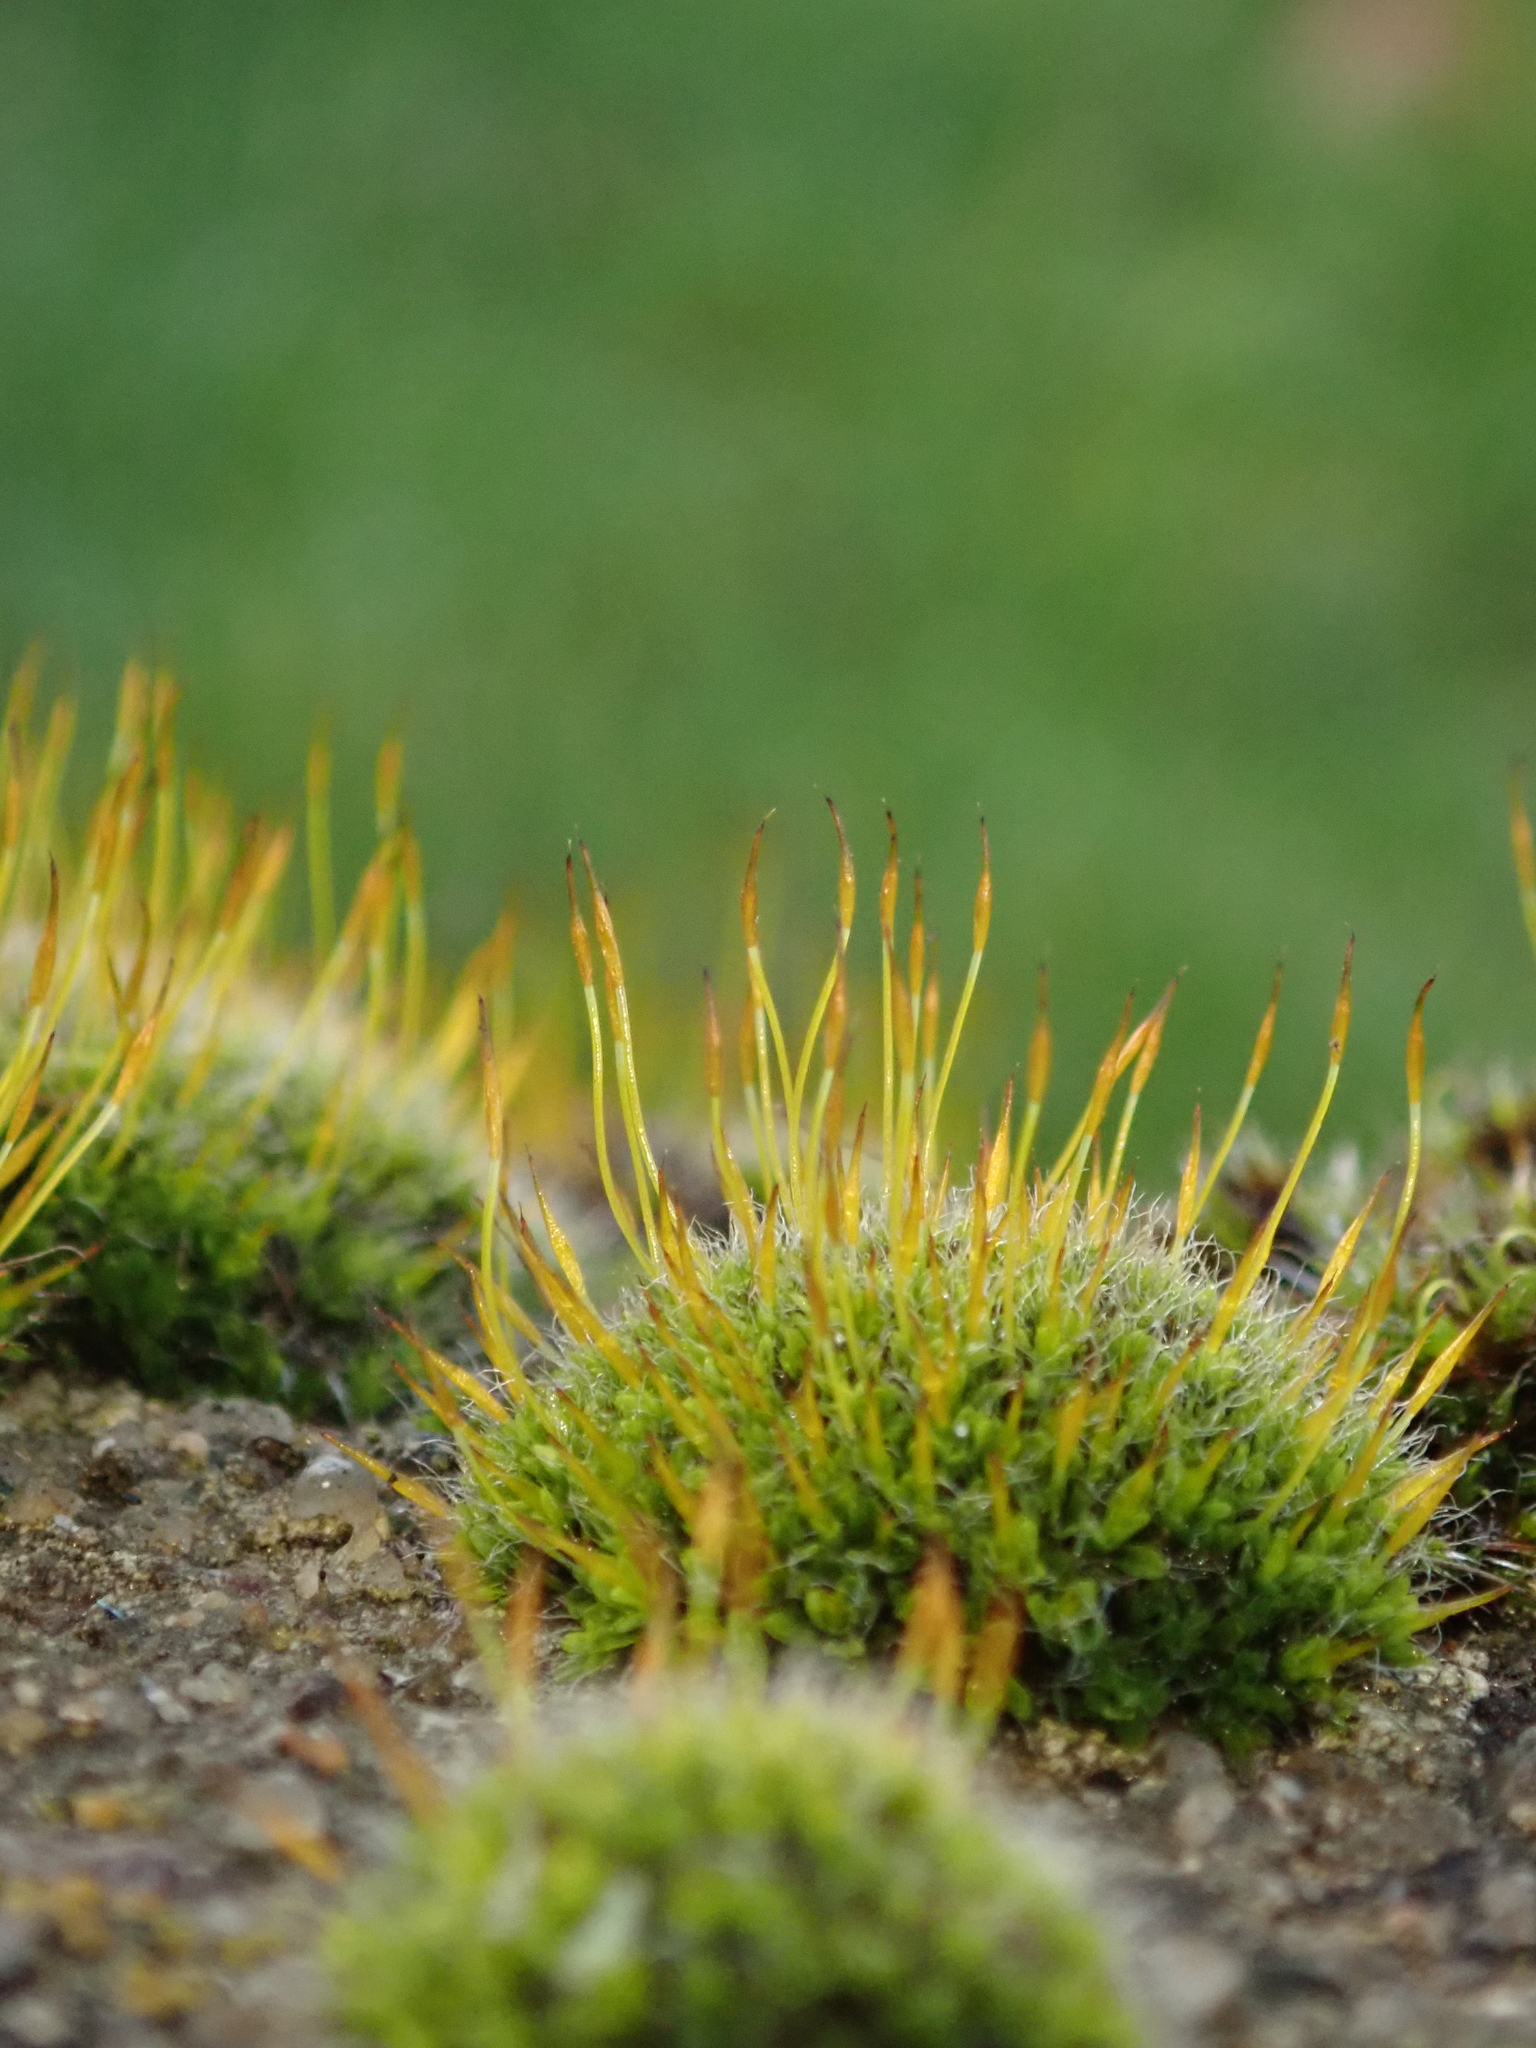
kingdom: Plantae
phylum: Bryophyta
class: Bryopsida
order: Pottiales
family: Pottiaceae
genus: Tortula
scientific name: Tortula muralis
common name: Wall screw-moss
